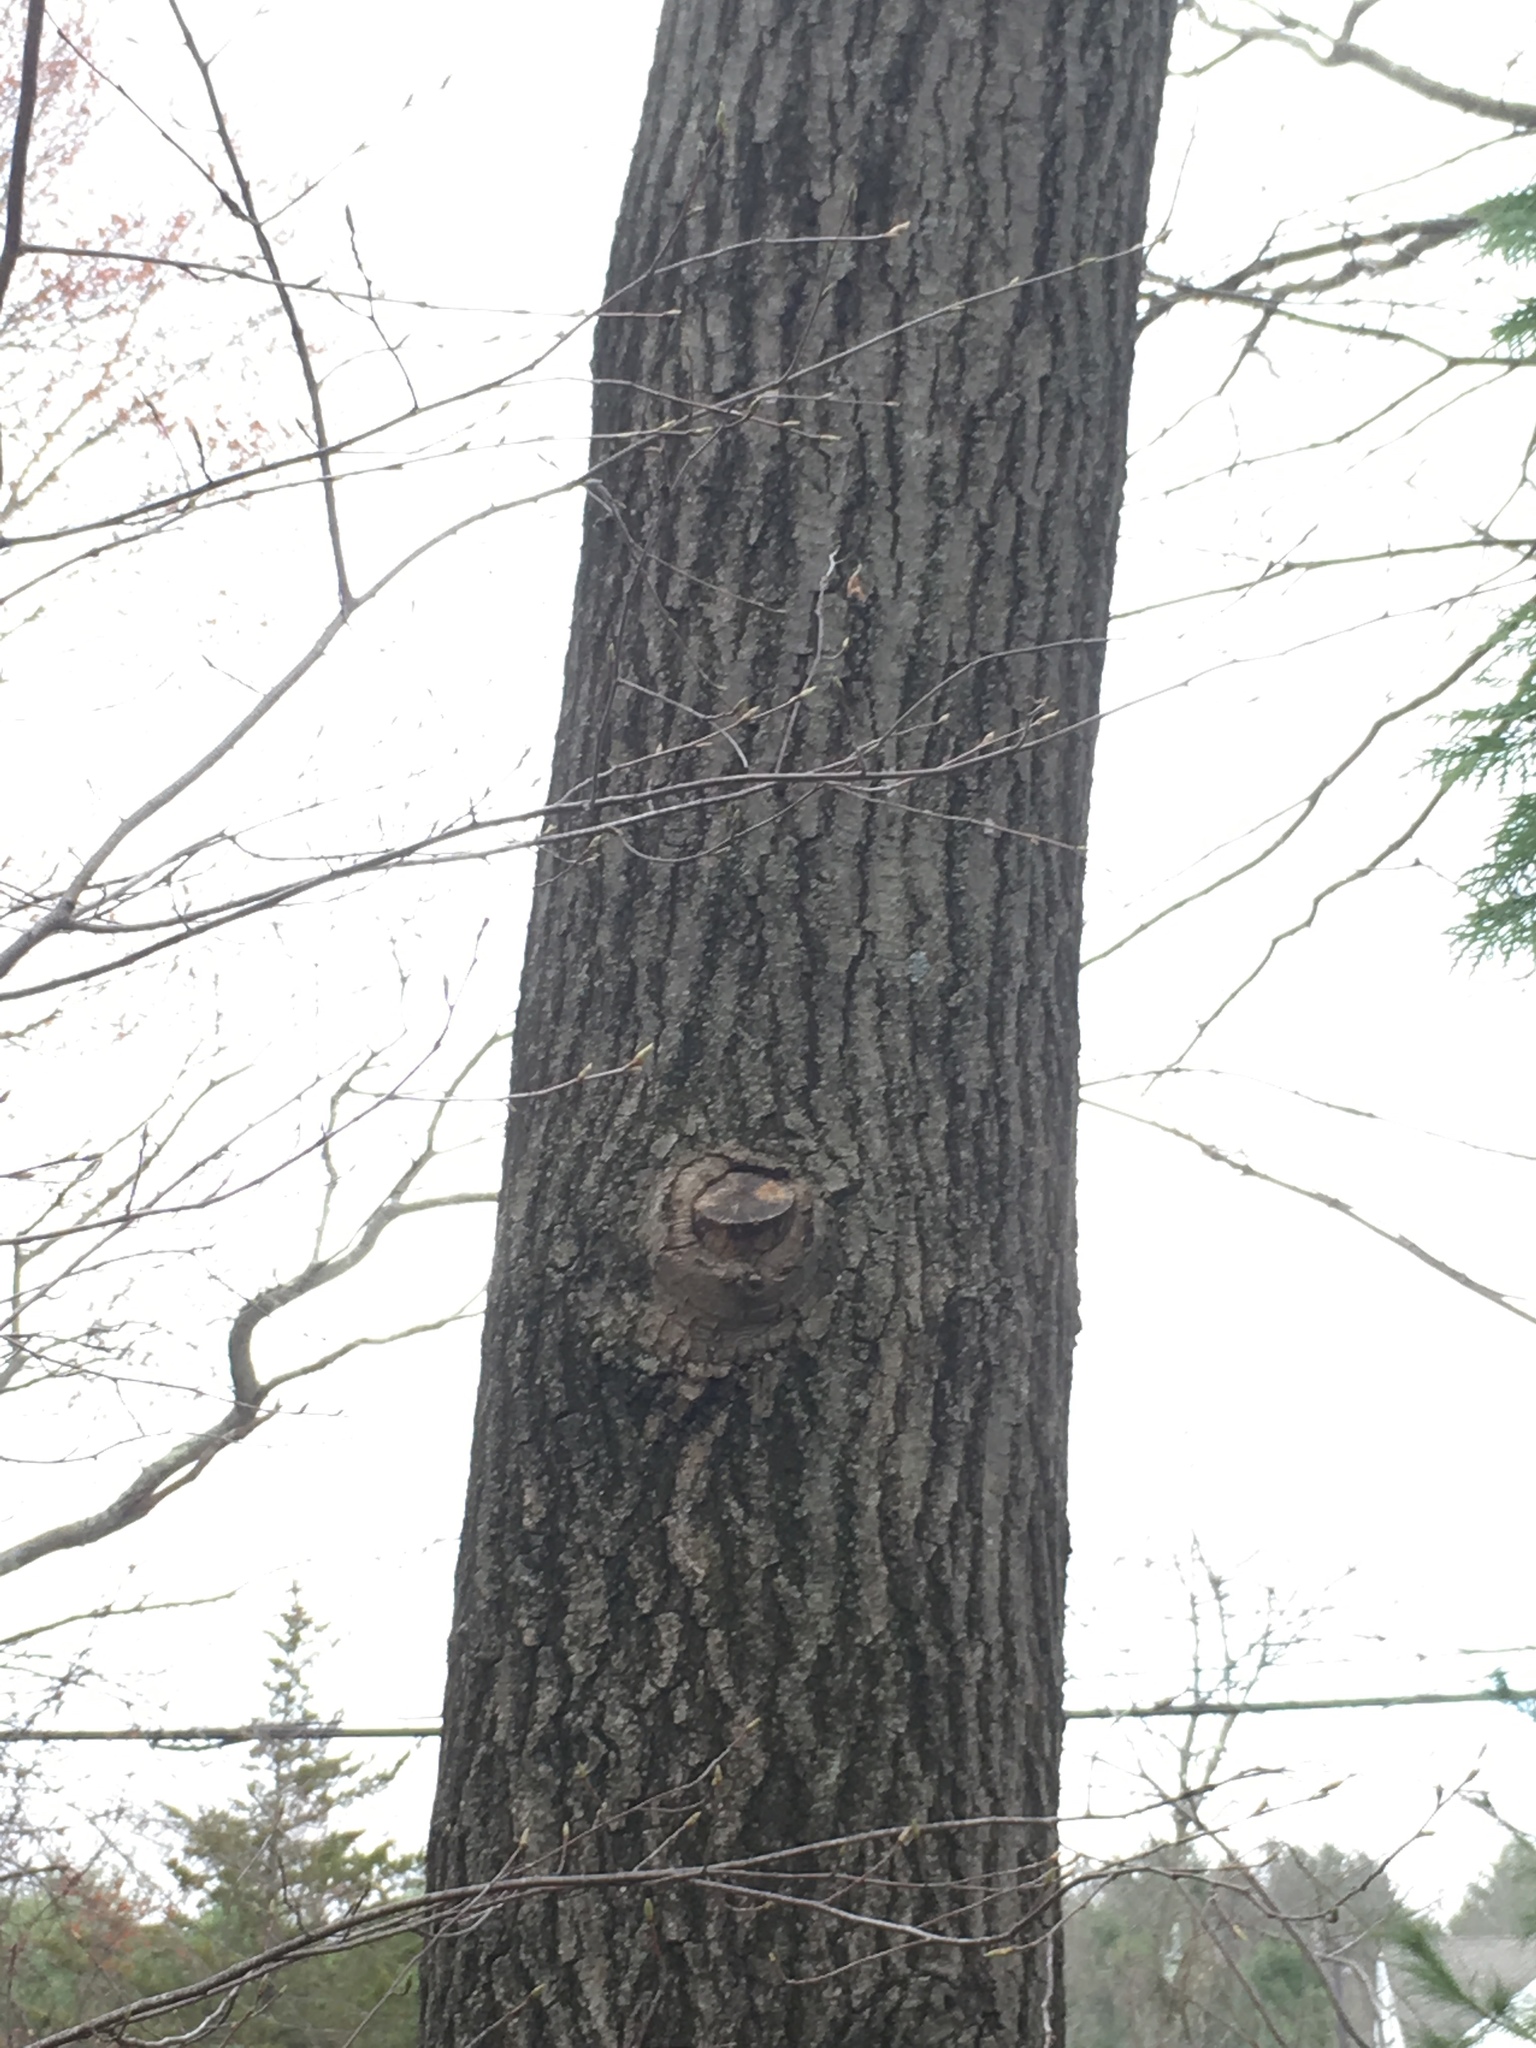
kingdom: Plantae
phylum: Tracheophyta
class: Magnoliopsida
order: Fagales
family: Fagaceae
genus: Quercus
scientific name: Quercus rubra
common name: Red oak
